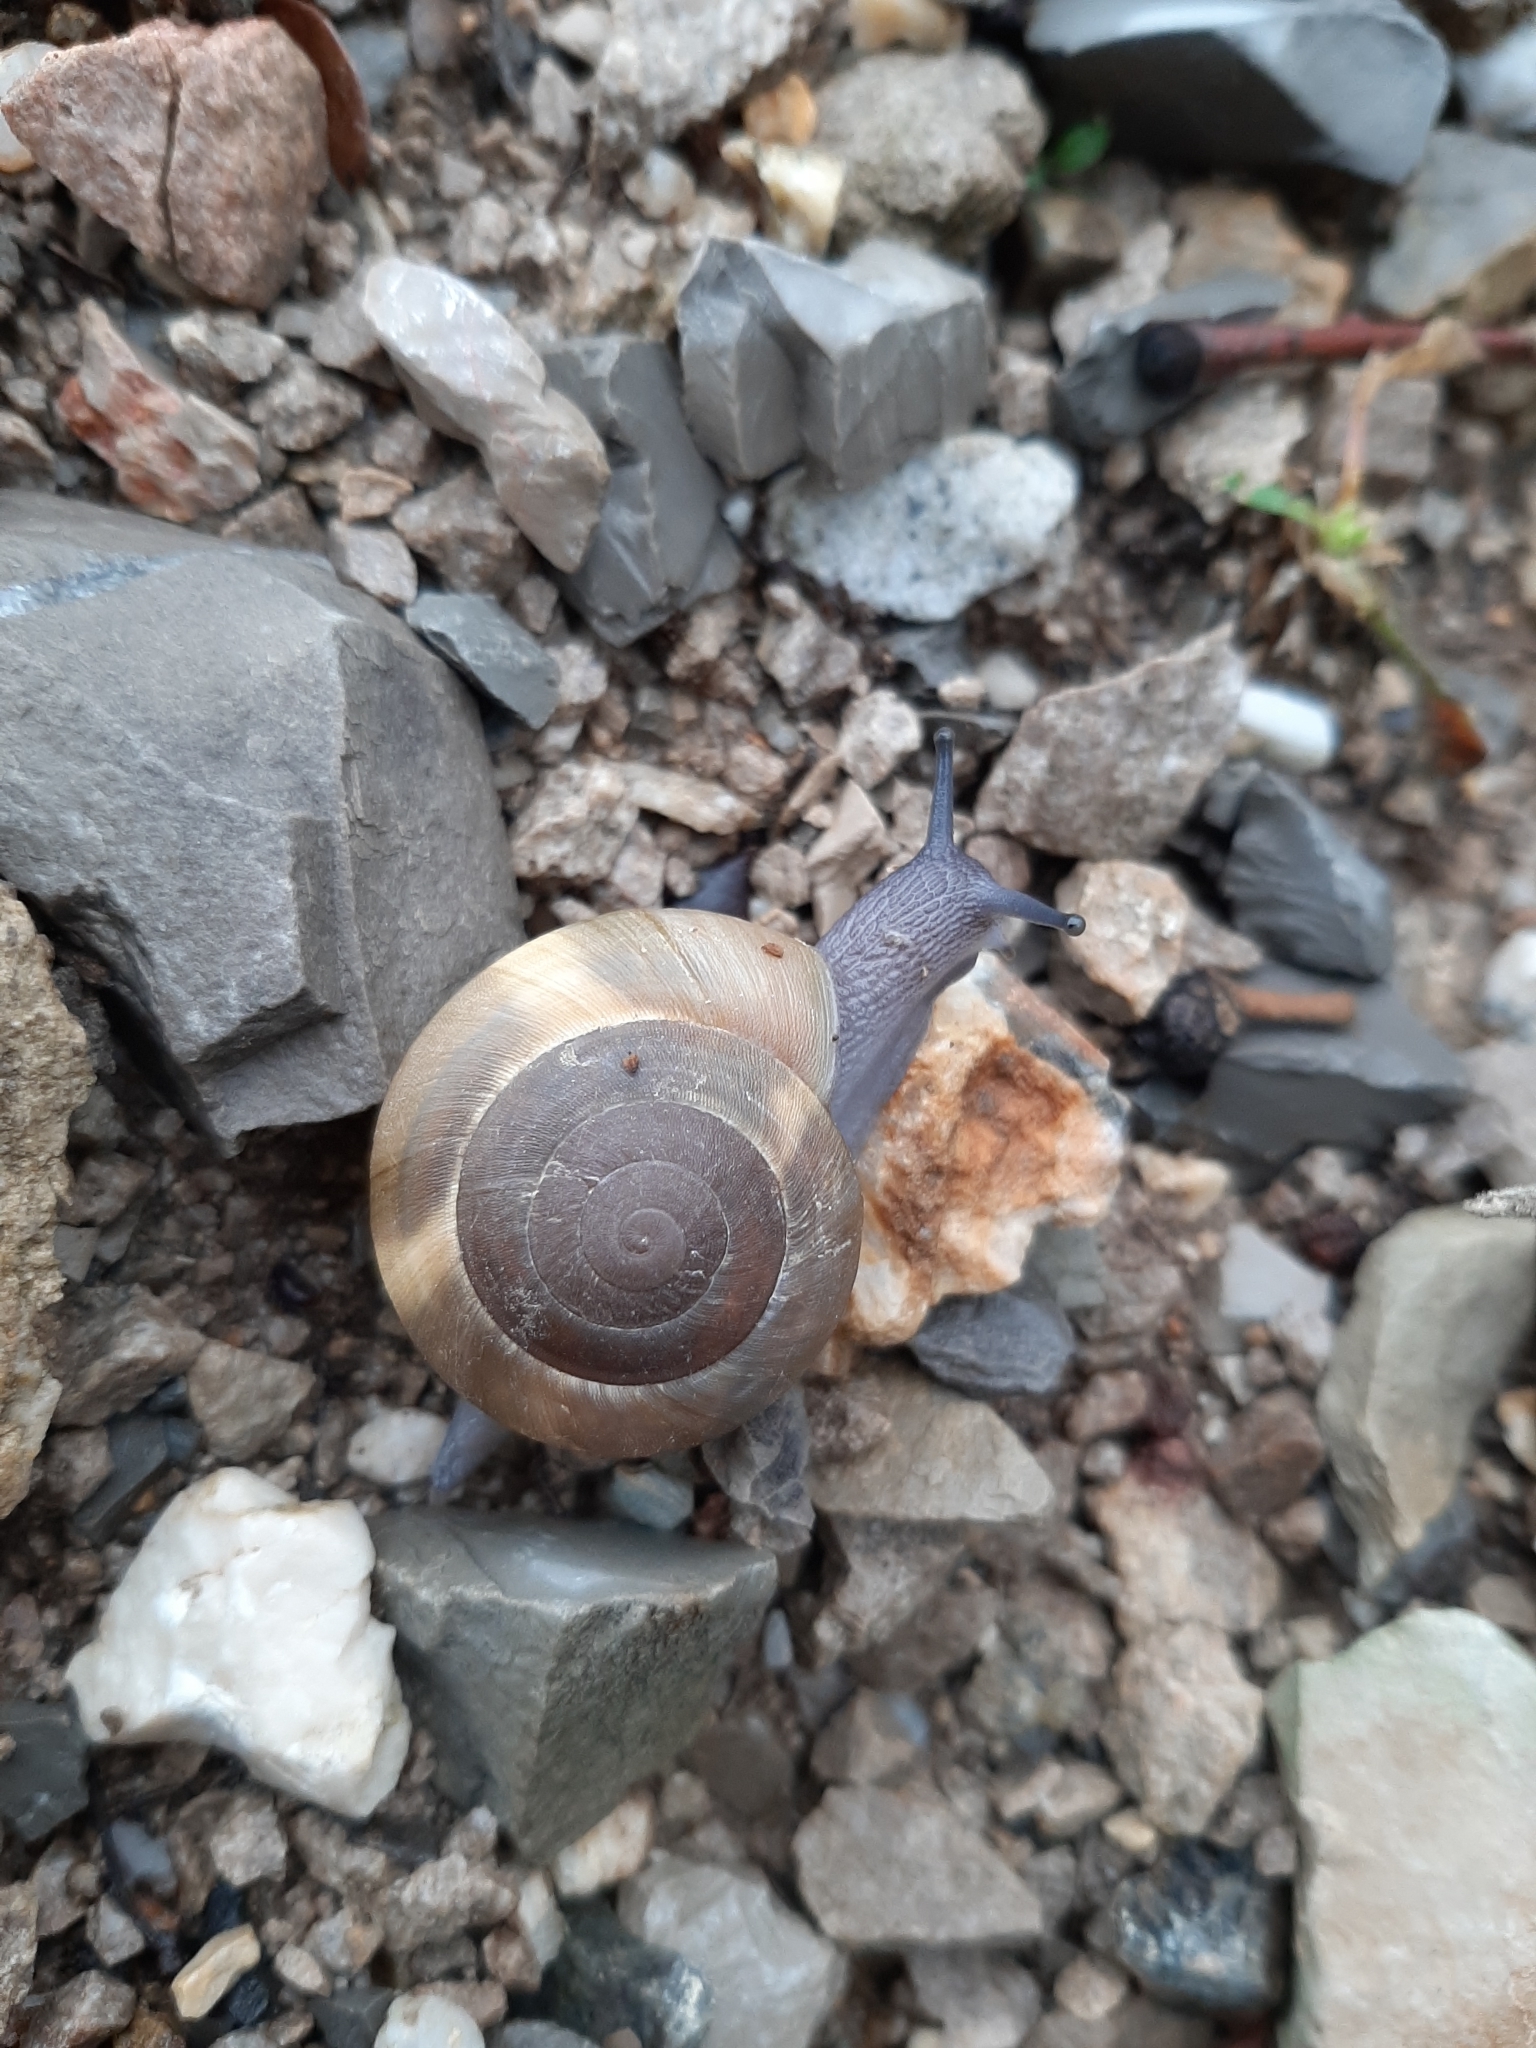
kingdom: Animalia
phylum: Mollusca
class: Gastropoda
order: Stylommatophora
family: Zonitidae
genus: Zonites
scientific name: Zonites algirus
